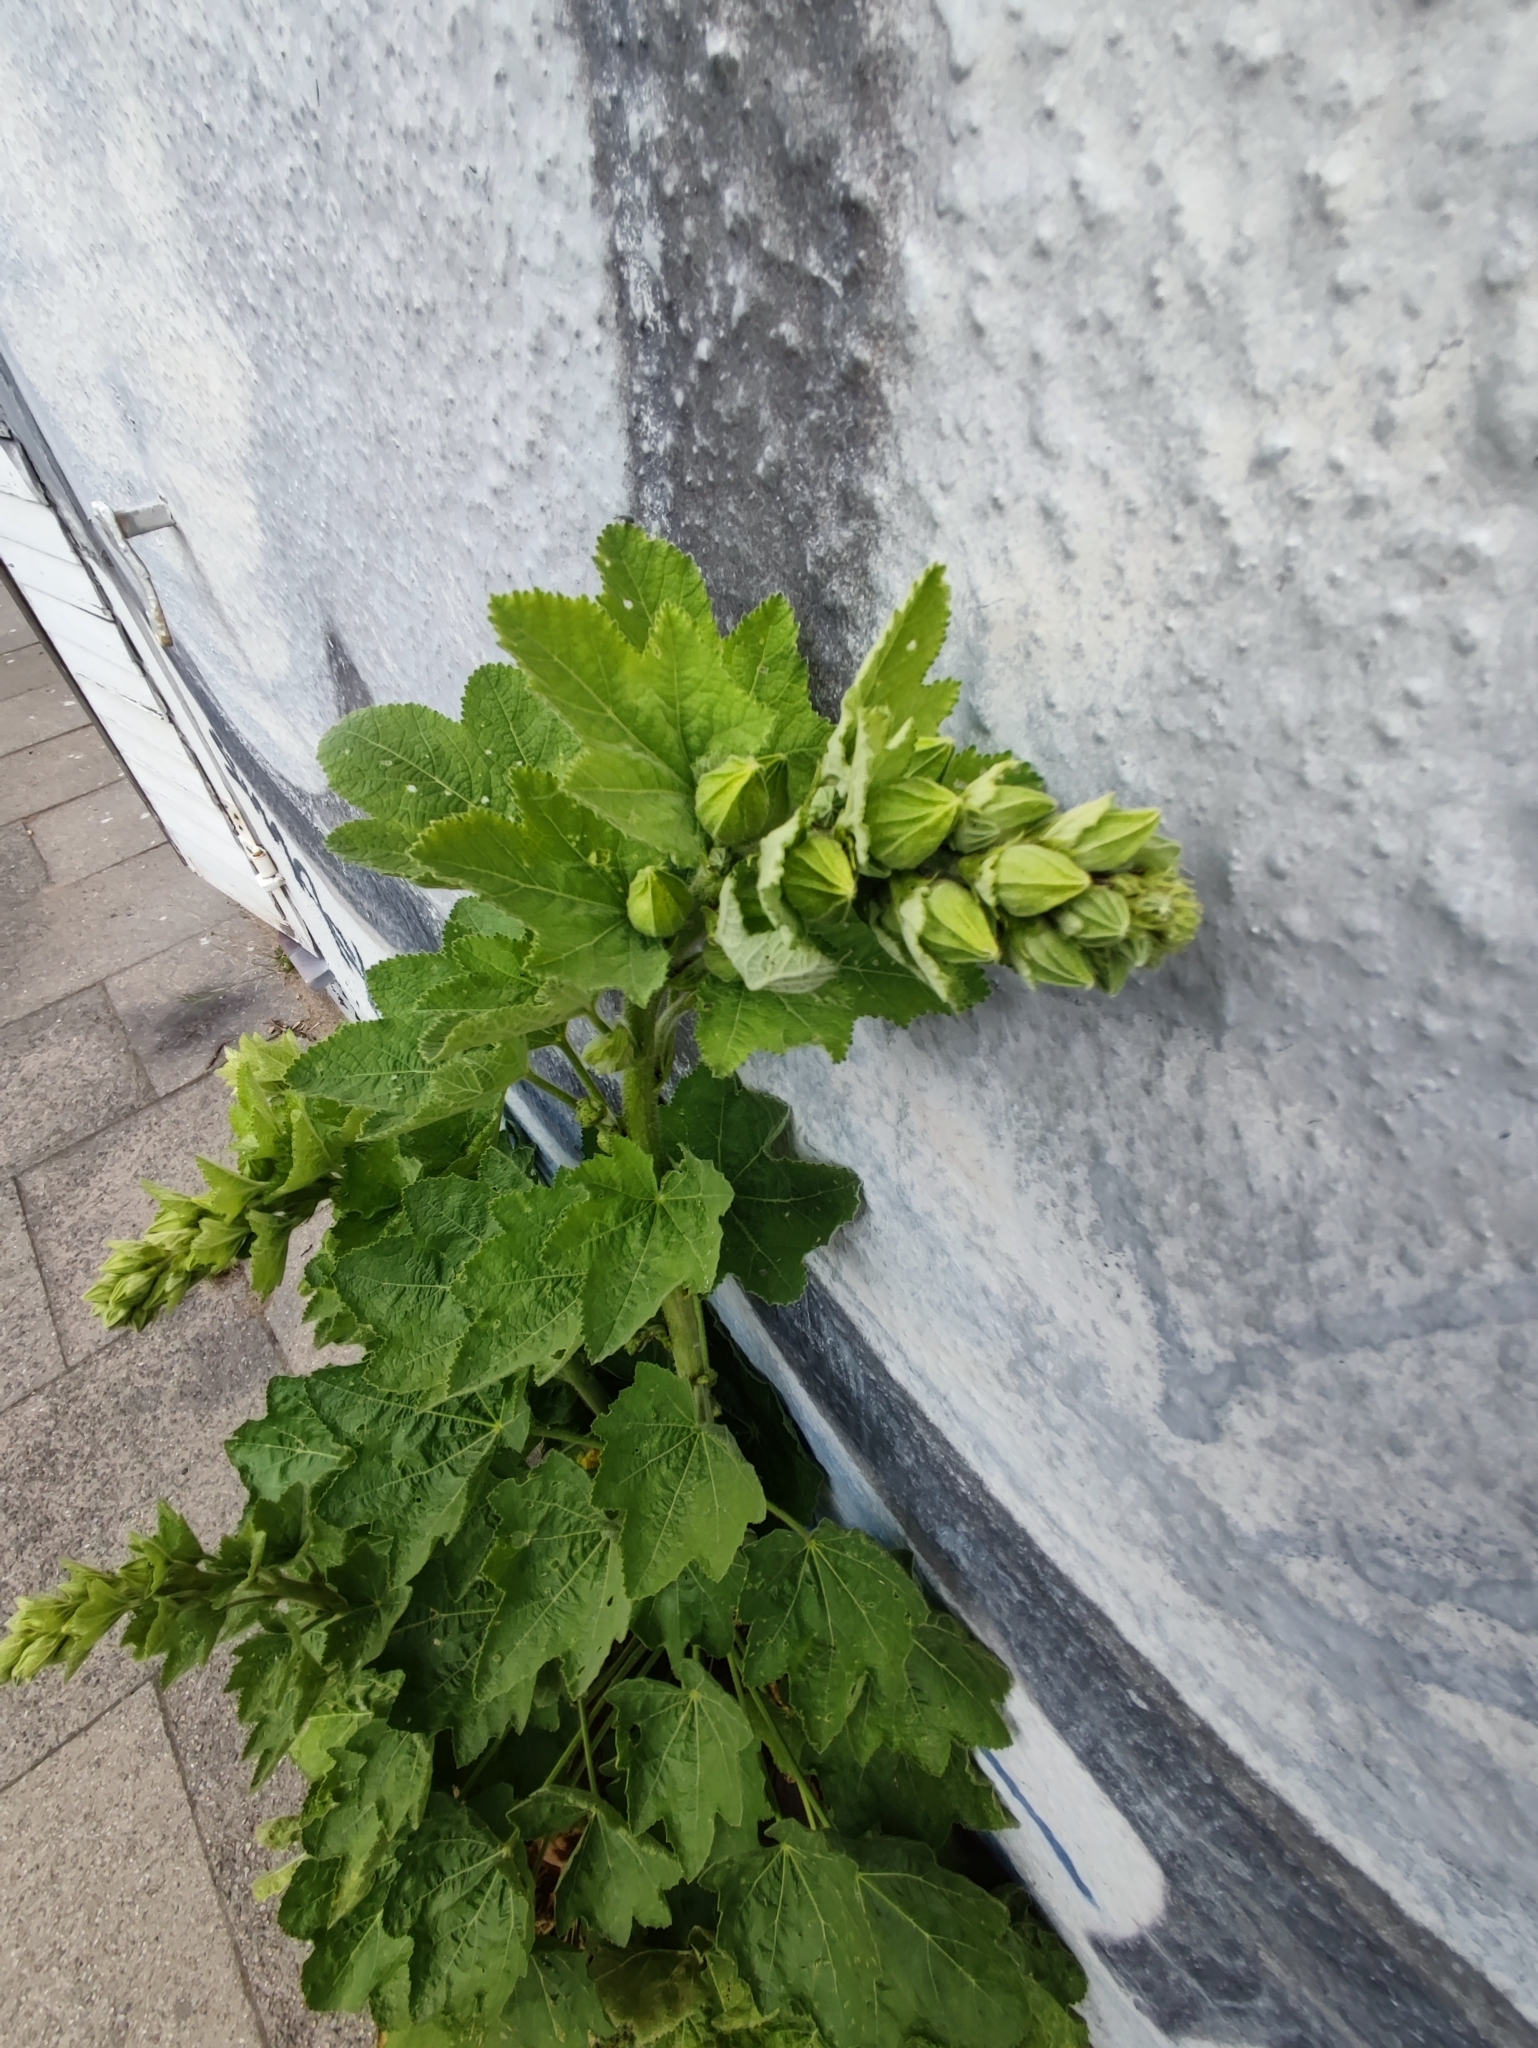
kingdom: Plantae
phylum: Tracheophyta
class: Magnoliopsida
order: Malvales
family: Malvaceae
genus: Alcea
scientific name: Alcea rosea
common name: Hollyhock
